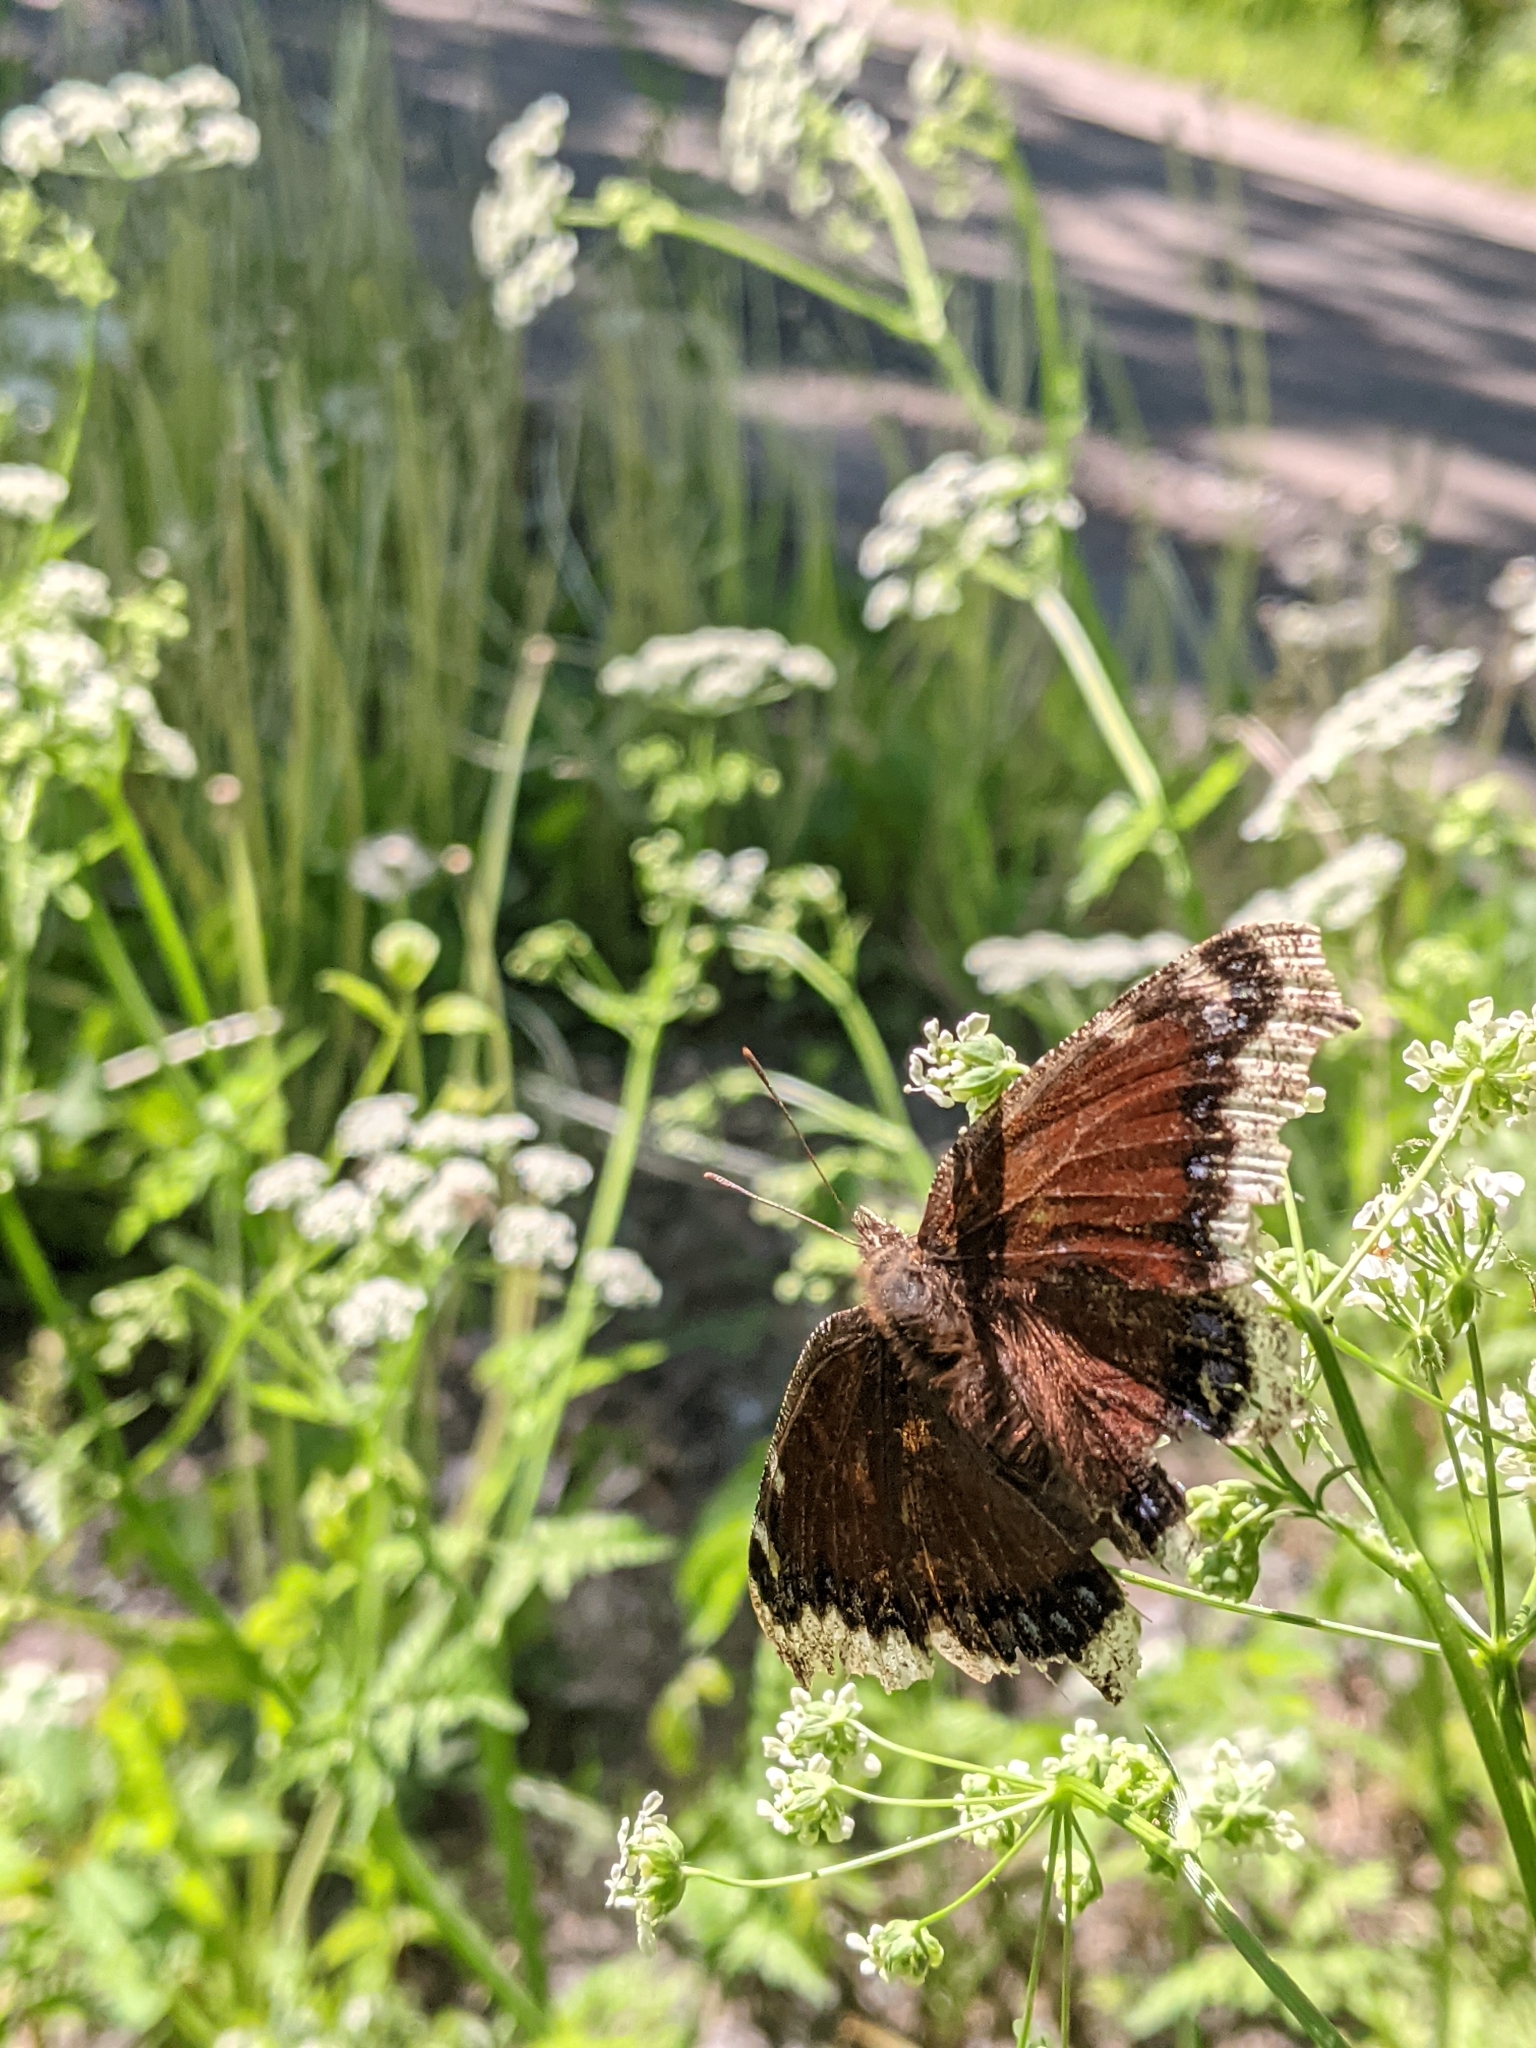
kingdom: Animalia
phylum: Arthropoda
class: Insecta
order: Lepidoptera
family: Nymphalidae
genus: Nymphalis
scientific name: Nymphalis antiopa
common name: Camberwell beauty
